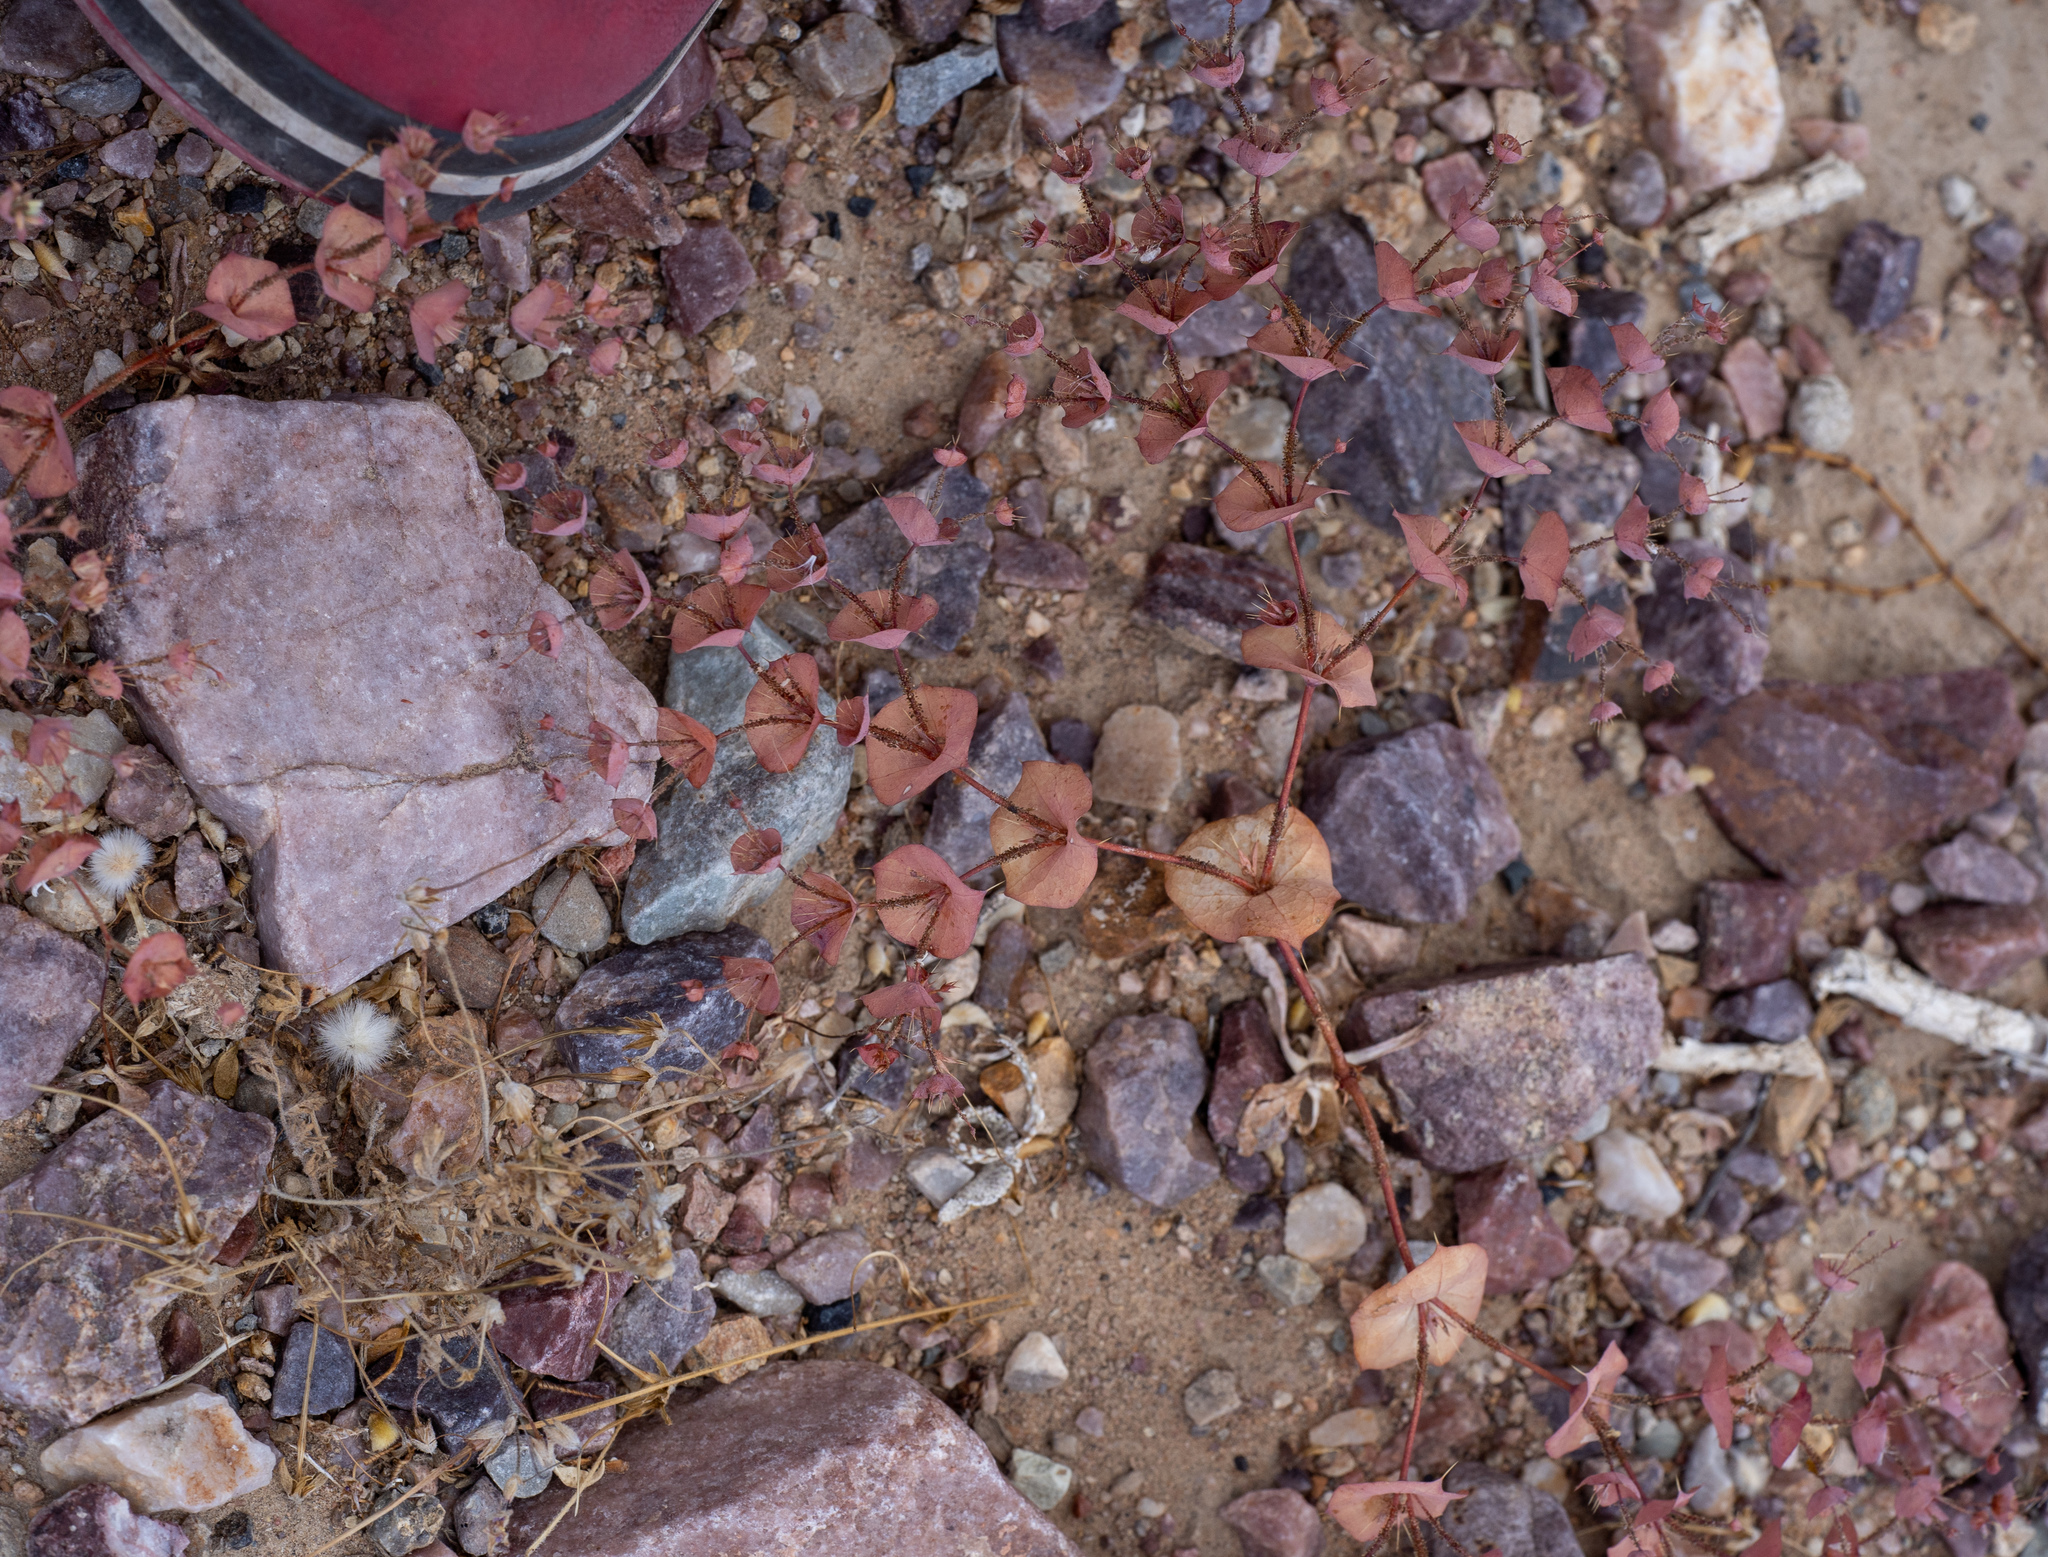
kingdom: Plantae
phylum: Tracheophyta
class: Magnoliopsida
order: Caryophyllales
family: Polygonaceae
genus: Oxytheca
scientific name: Oxytheca perfoliata
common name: Round-leaf puncturebract
